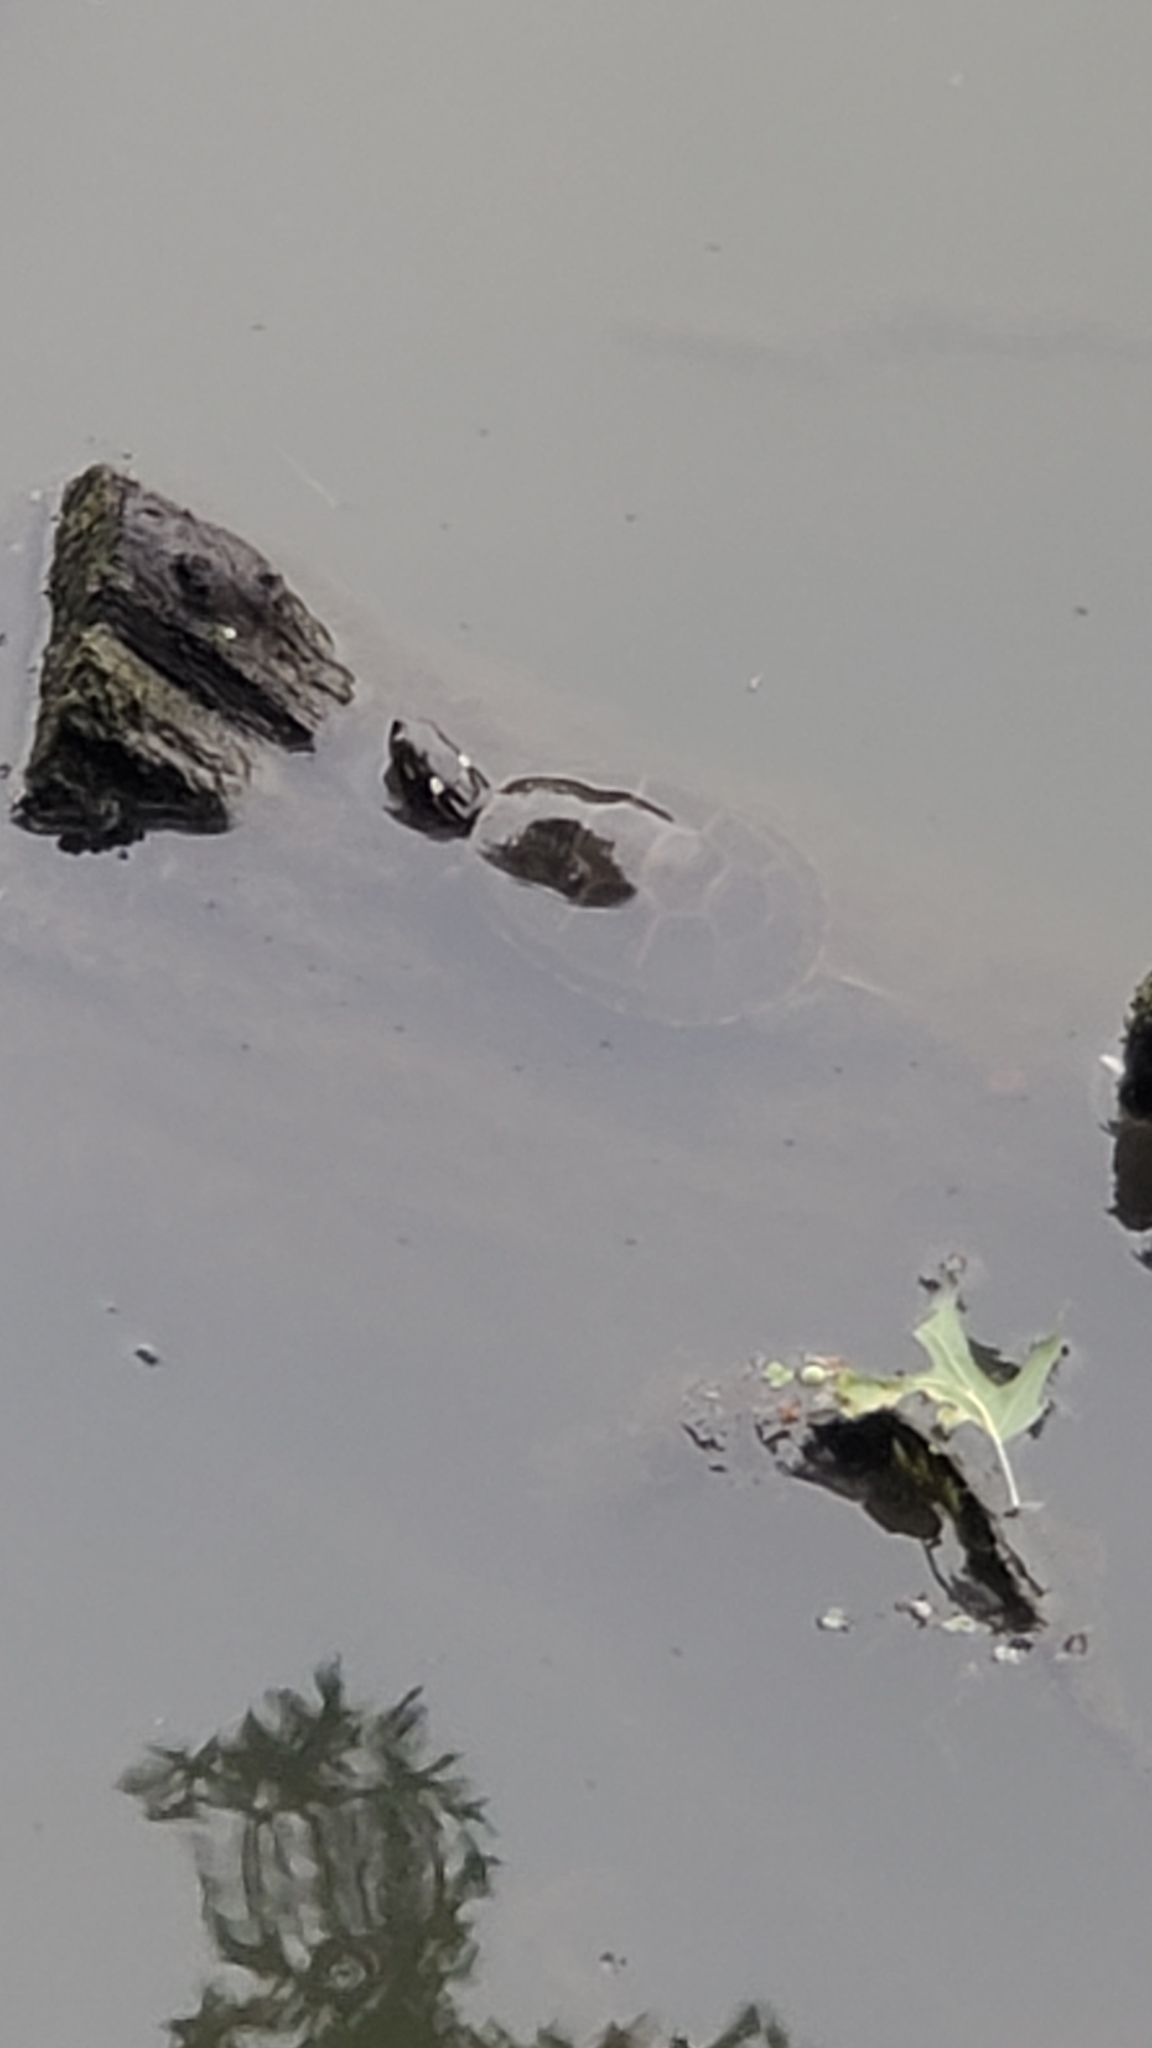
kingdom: Animalia
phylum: Chordata
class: Testudines
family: Emydidae
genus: Chrysemys
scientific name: Chrysemys picta
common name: Painted turtle
